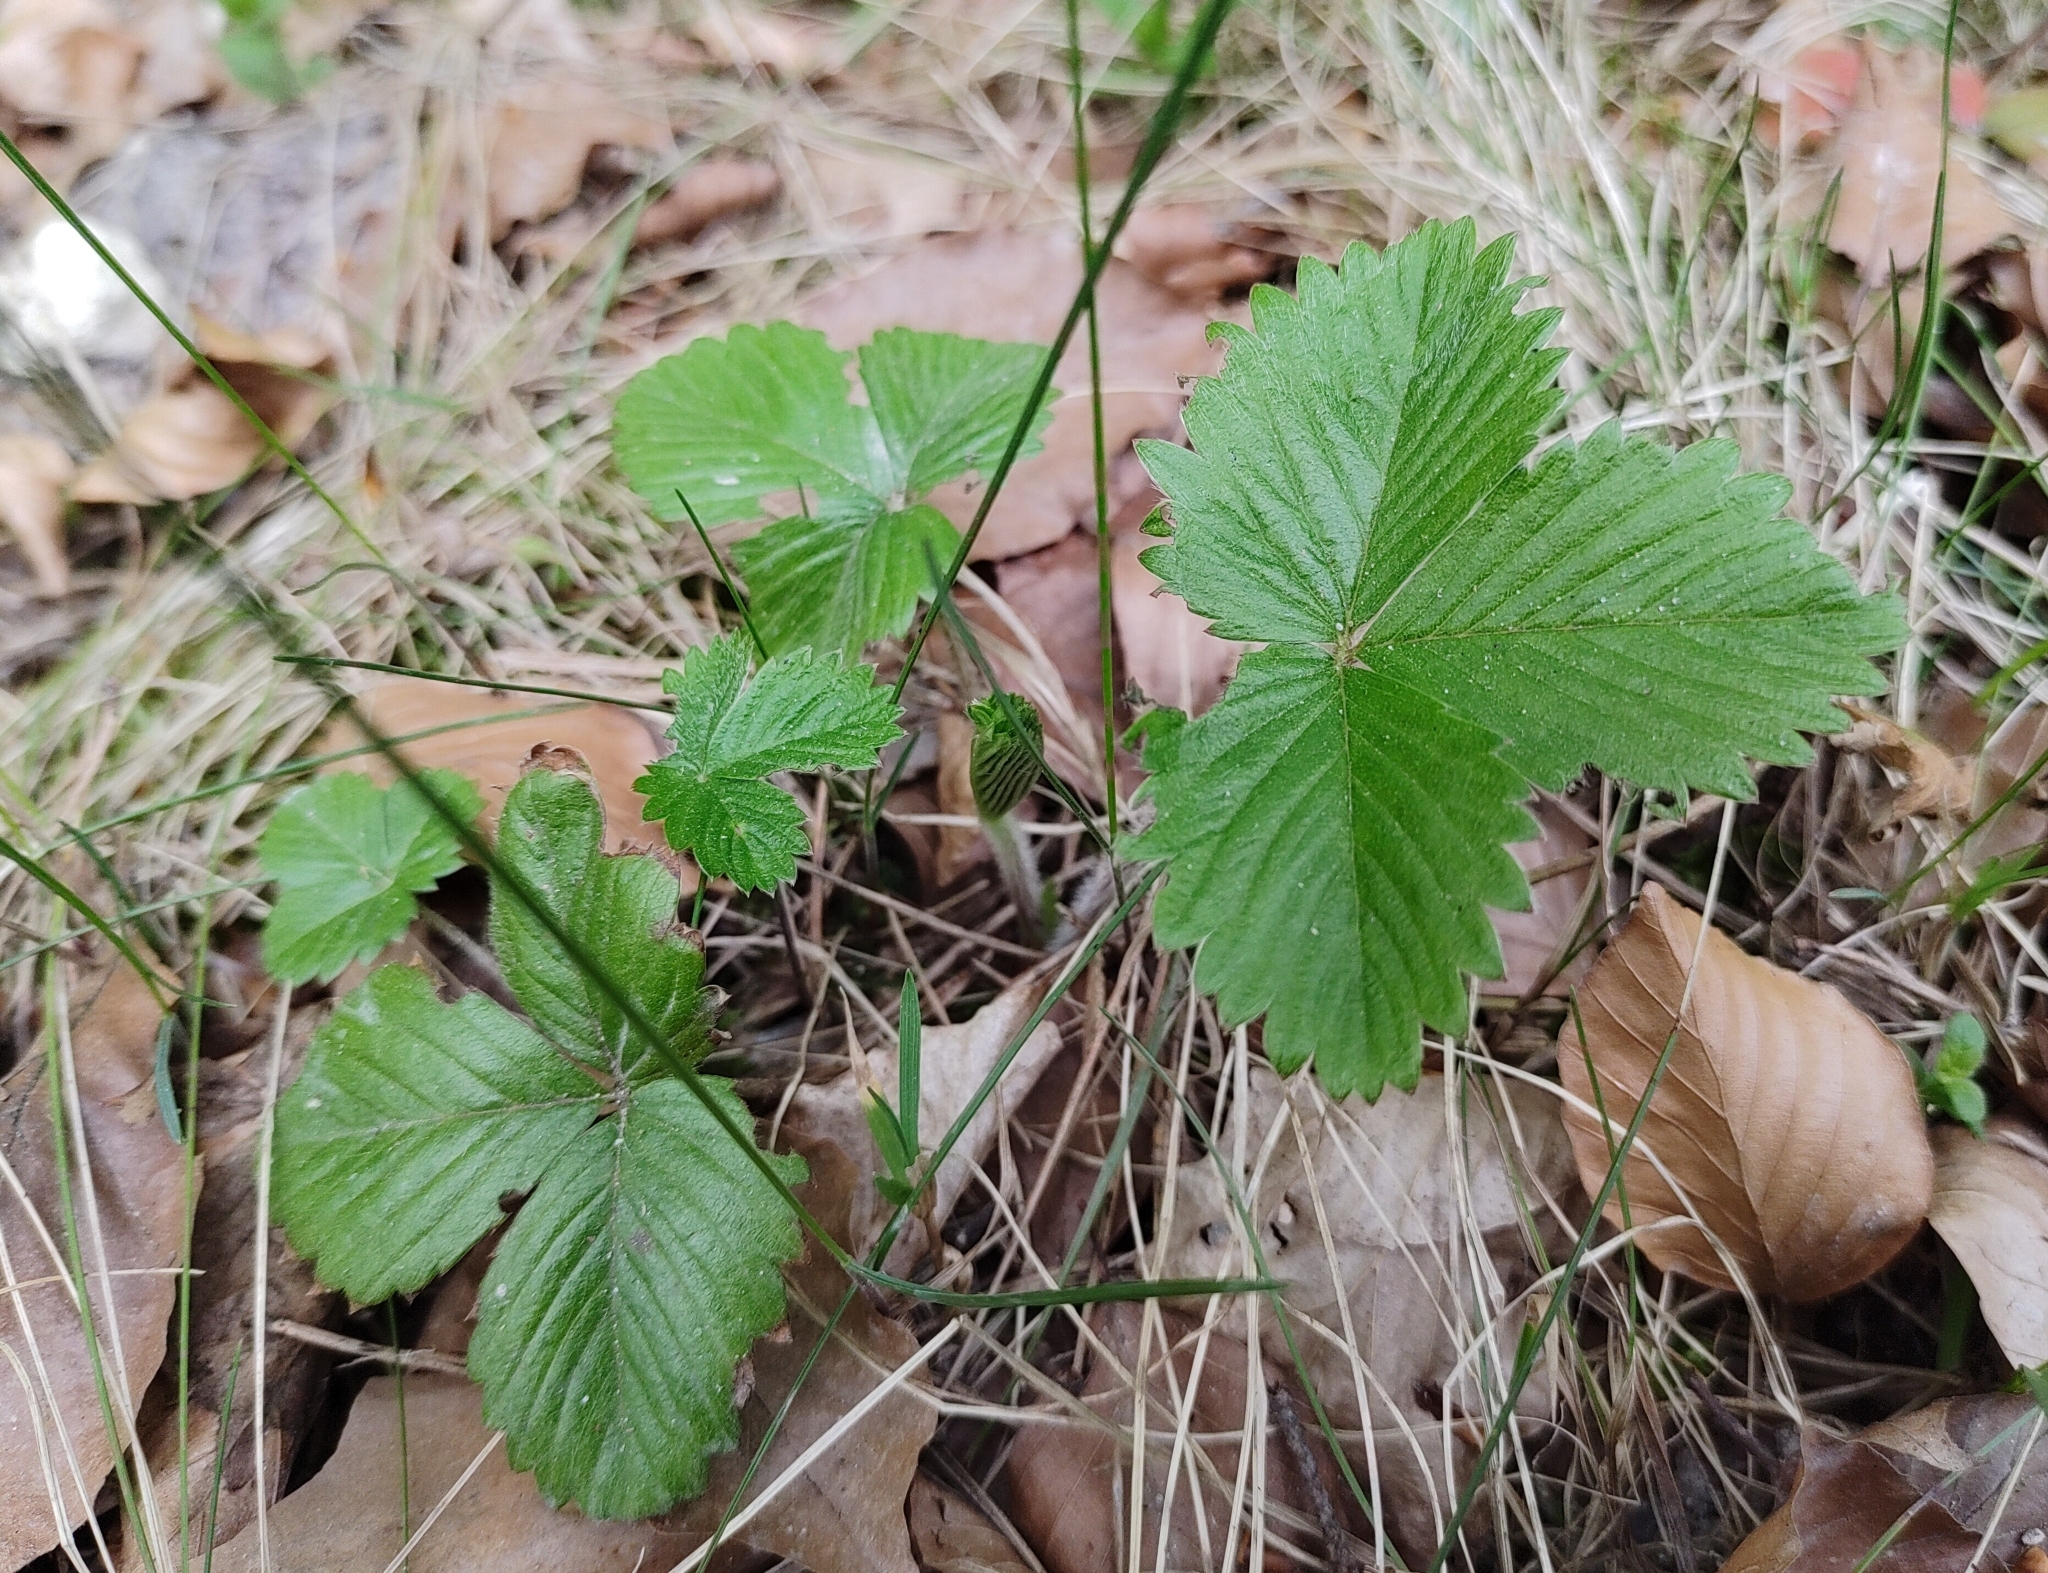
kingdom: Plantae
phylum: Tracheophyta
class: Magnoliopsida
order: Rosales
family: Rosaceae
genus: Fragaria
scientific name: Fragaria vesca
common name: Wild strawberry
